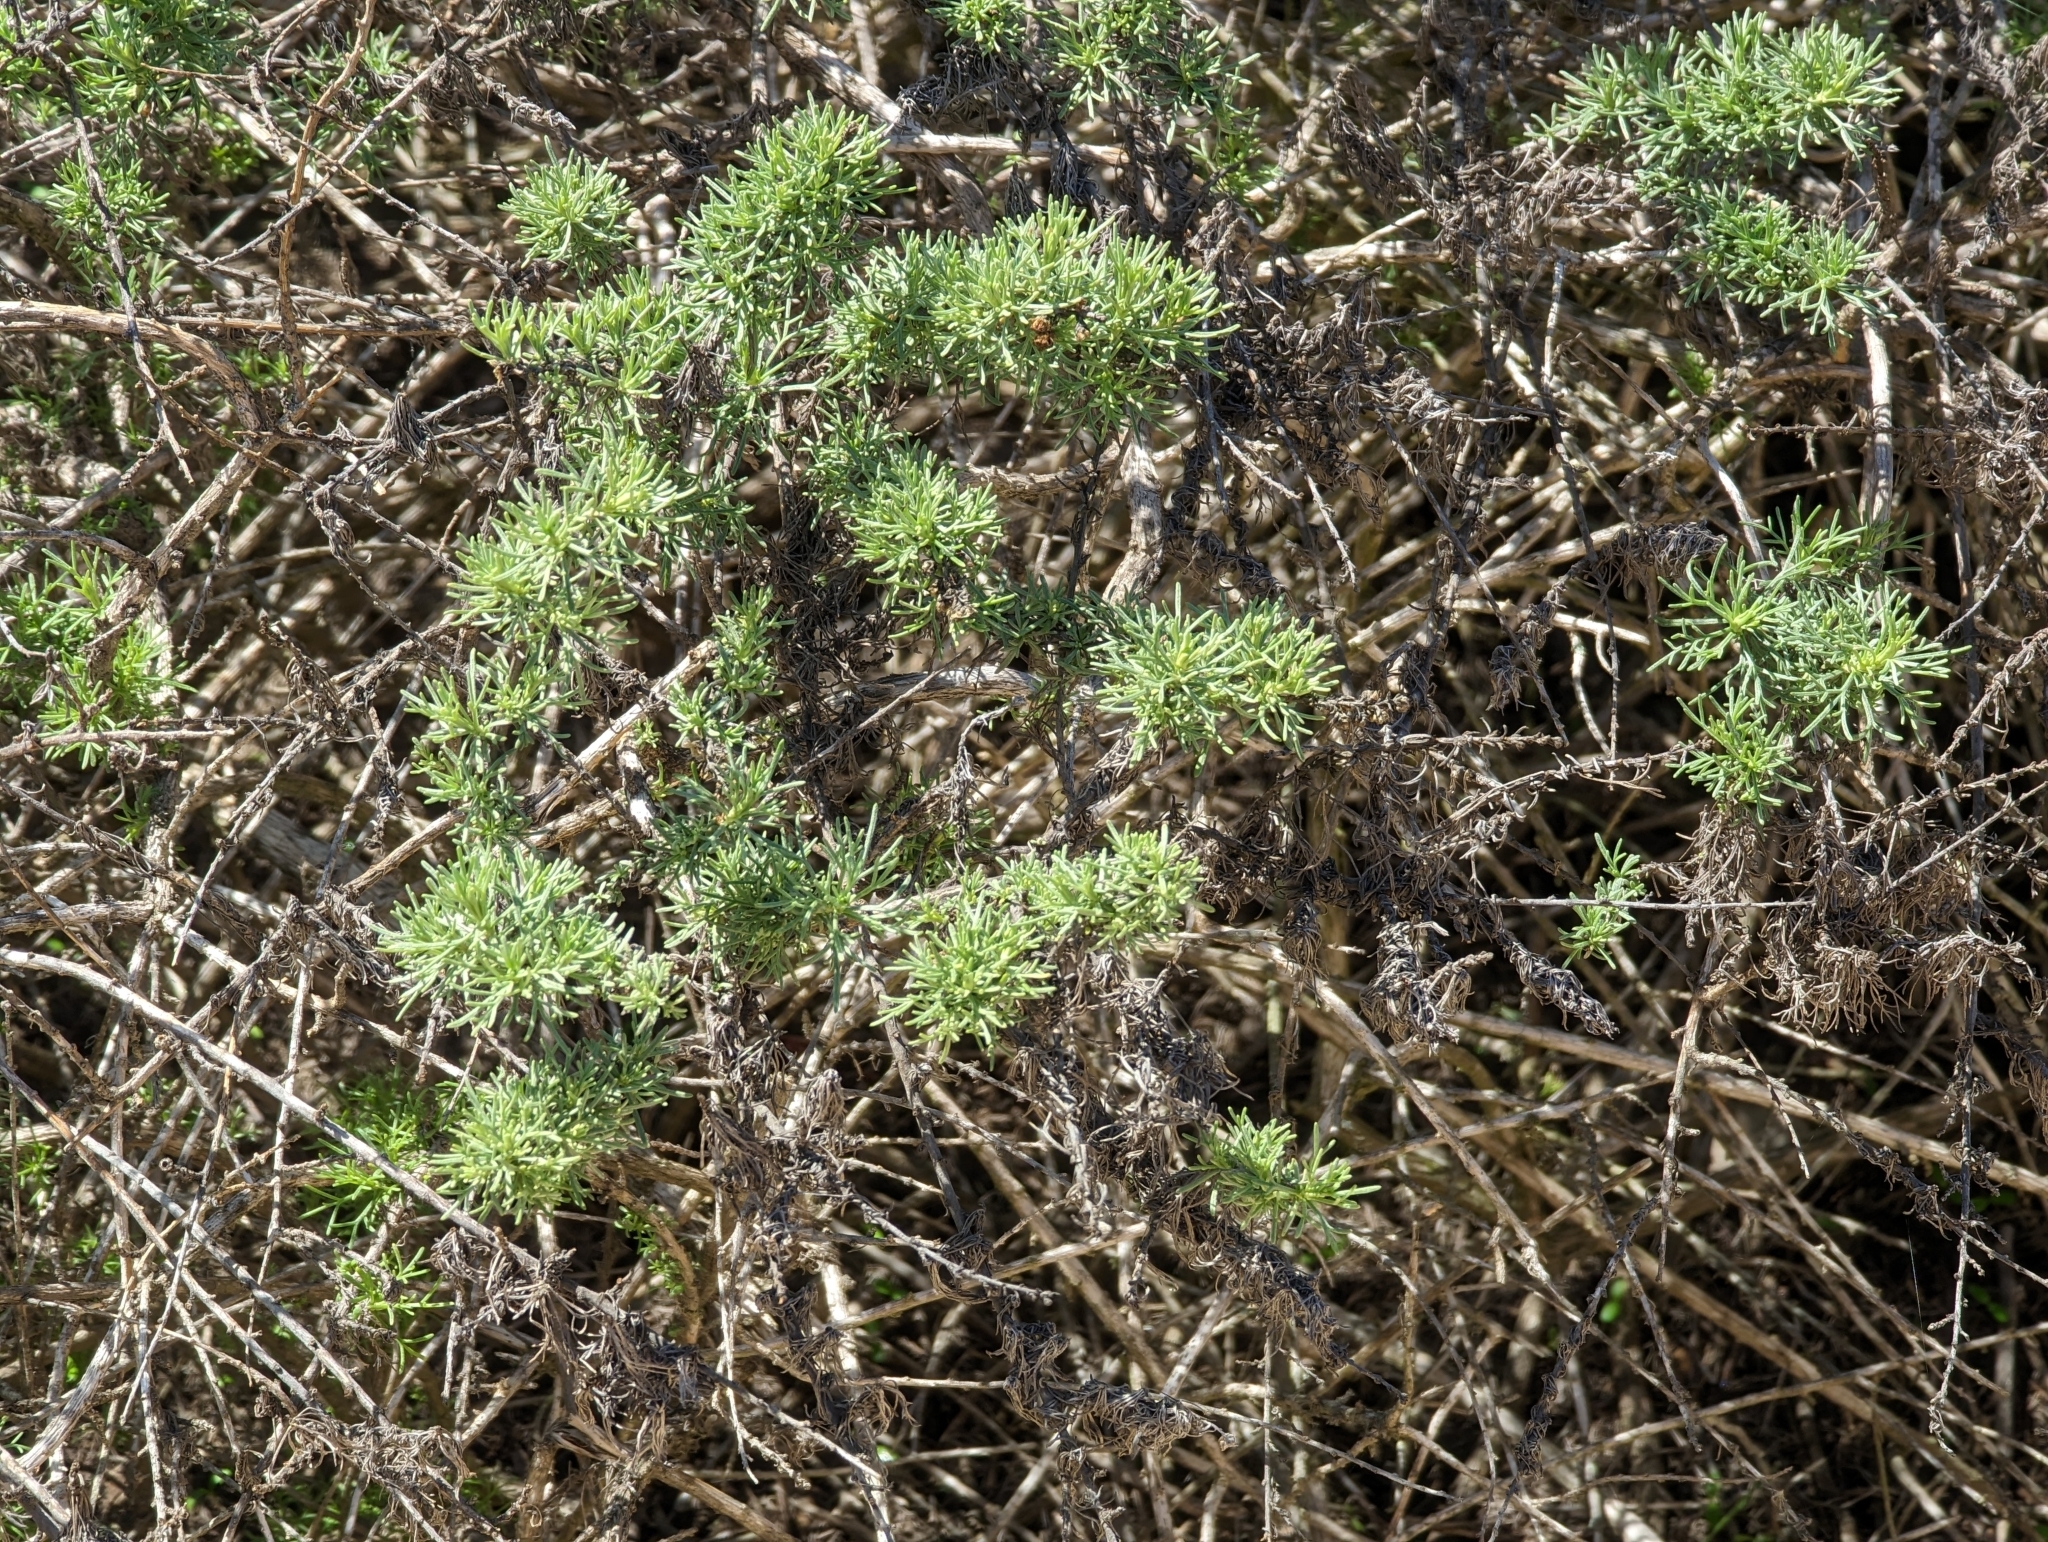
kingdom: Plantae
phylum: Tracheophyta
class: Magnoliopsida
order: Asterales
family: Asteraceae
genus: Artemisia
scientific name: Artemisia californica
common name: California sagebrush
